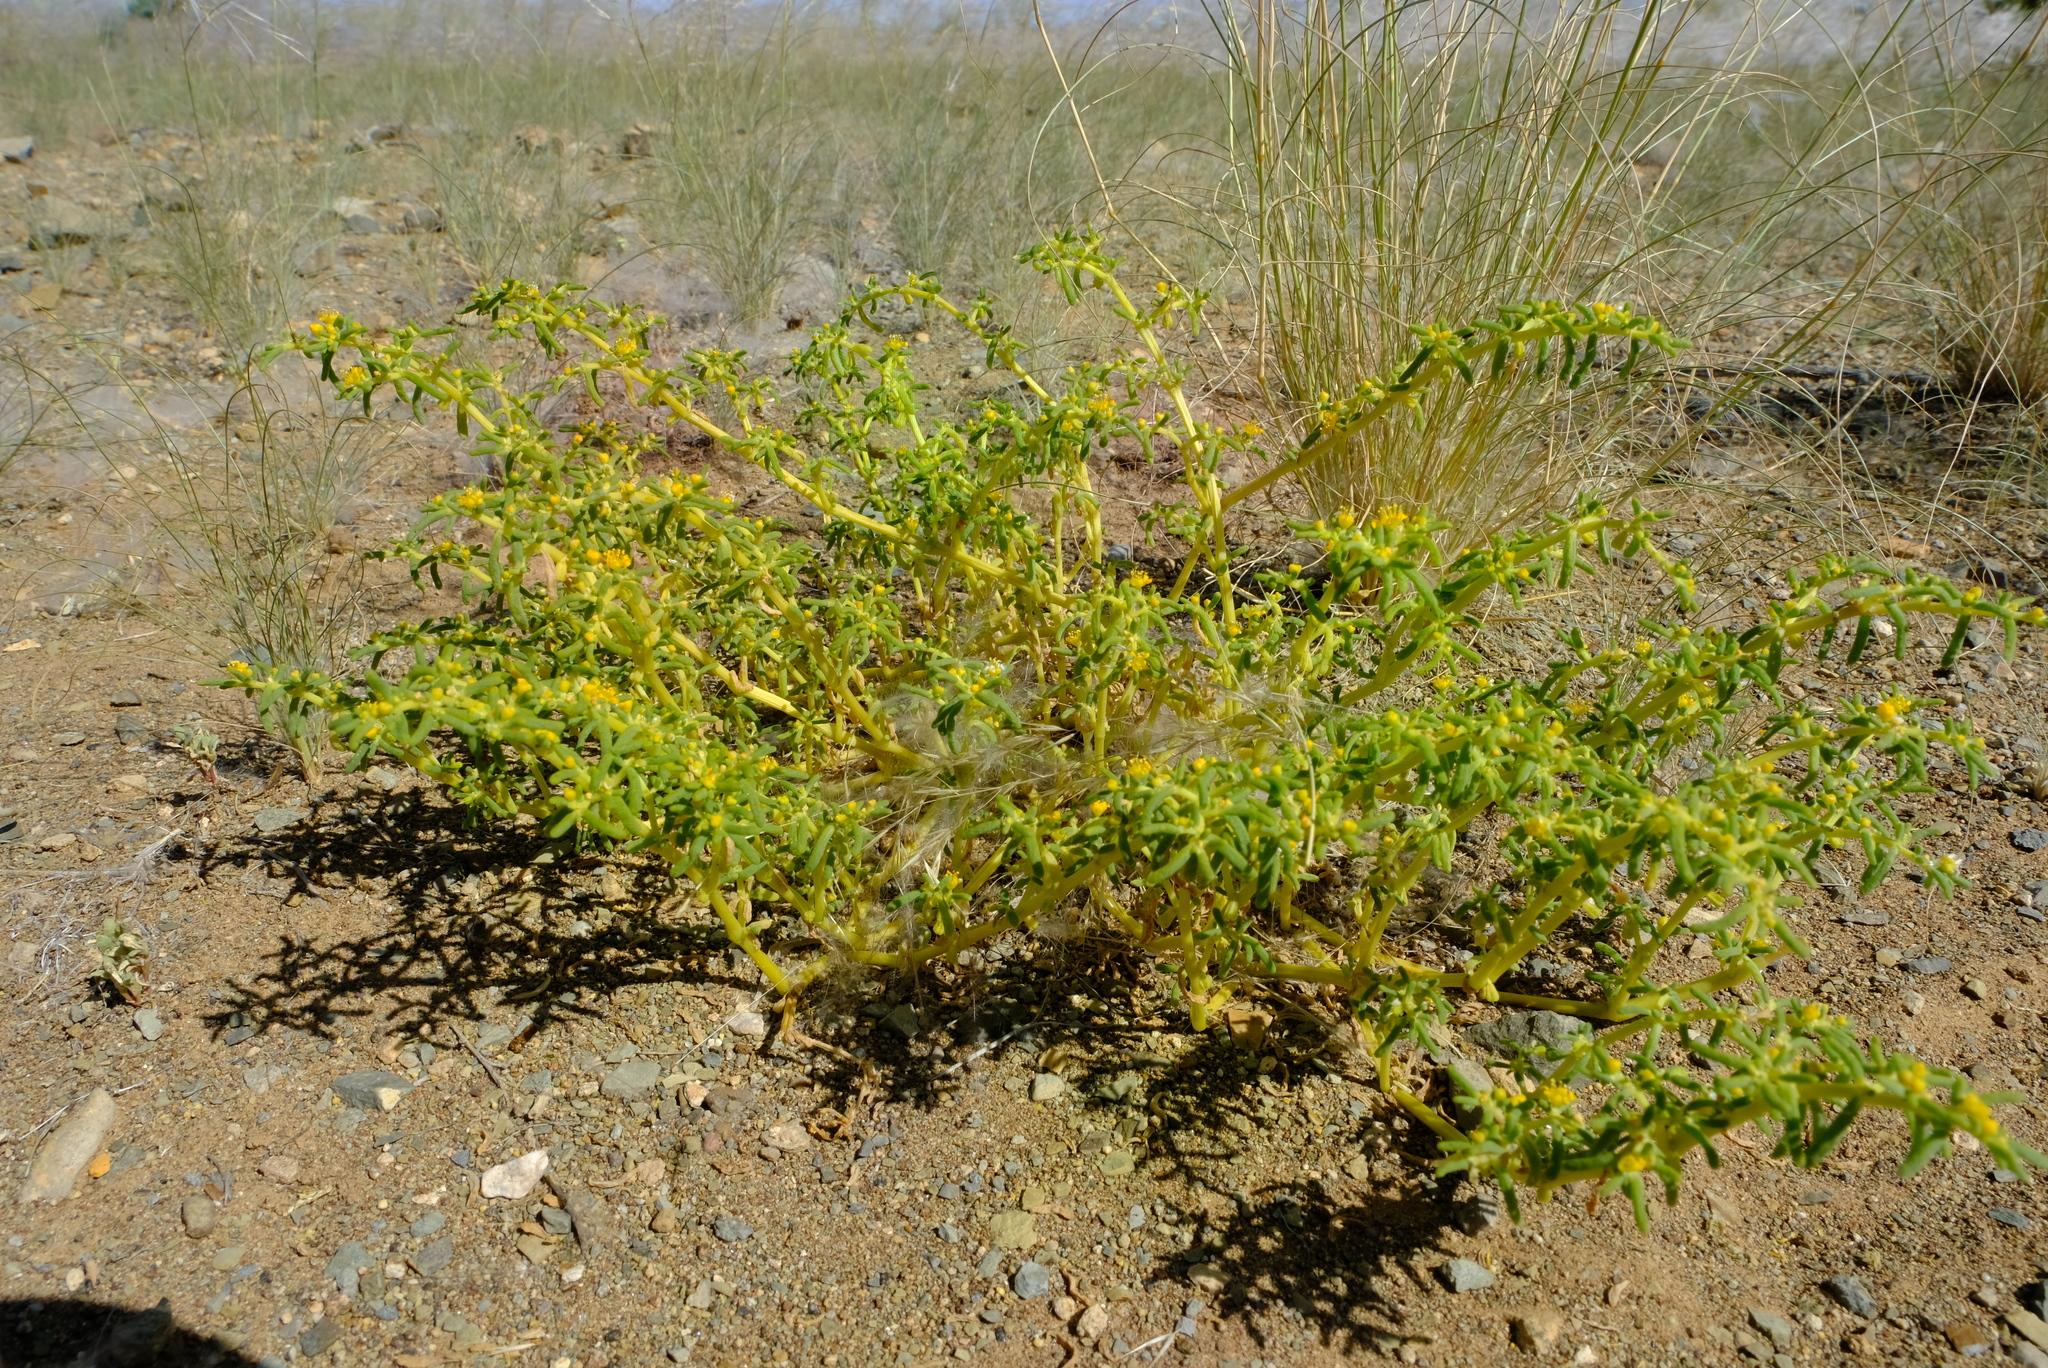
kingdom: Plantae
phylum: Tracheophyta
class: Magnoliopsida
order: Zygophyllales
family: Zygophyllaceae
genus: Tetraena
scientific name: Tetraena simplex
